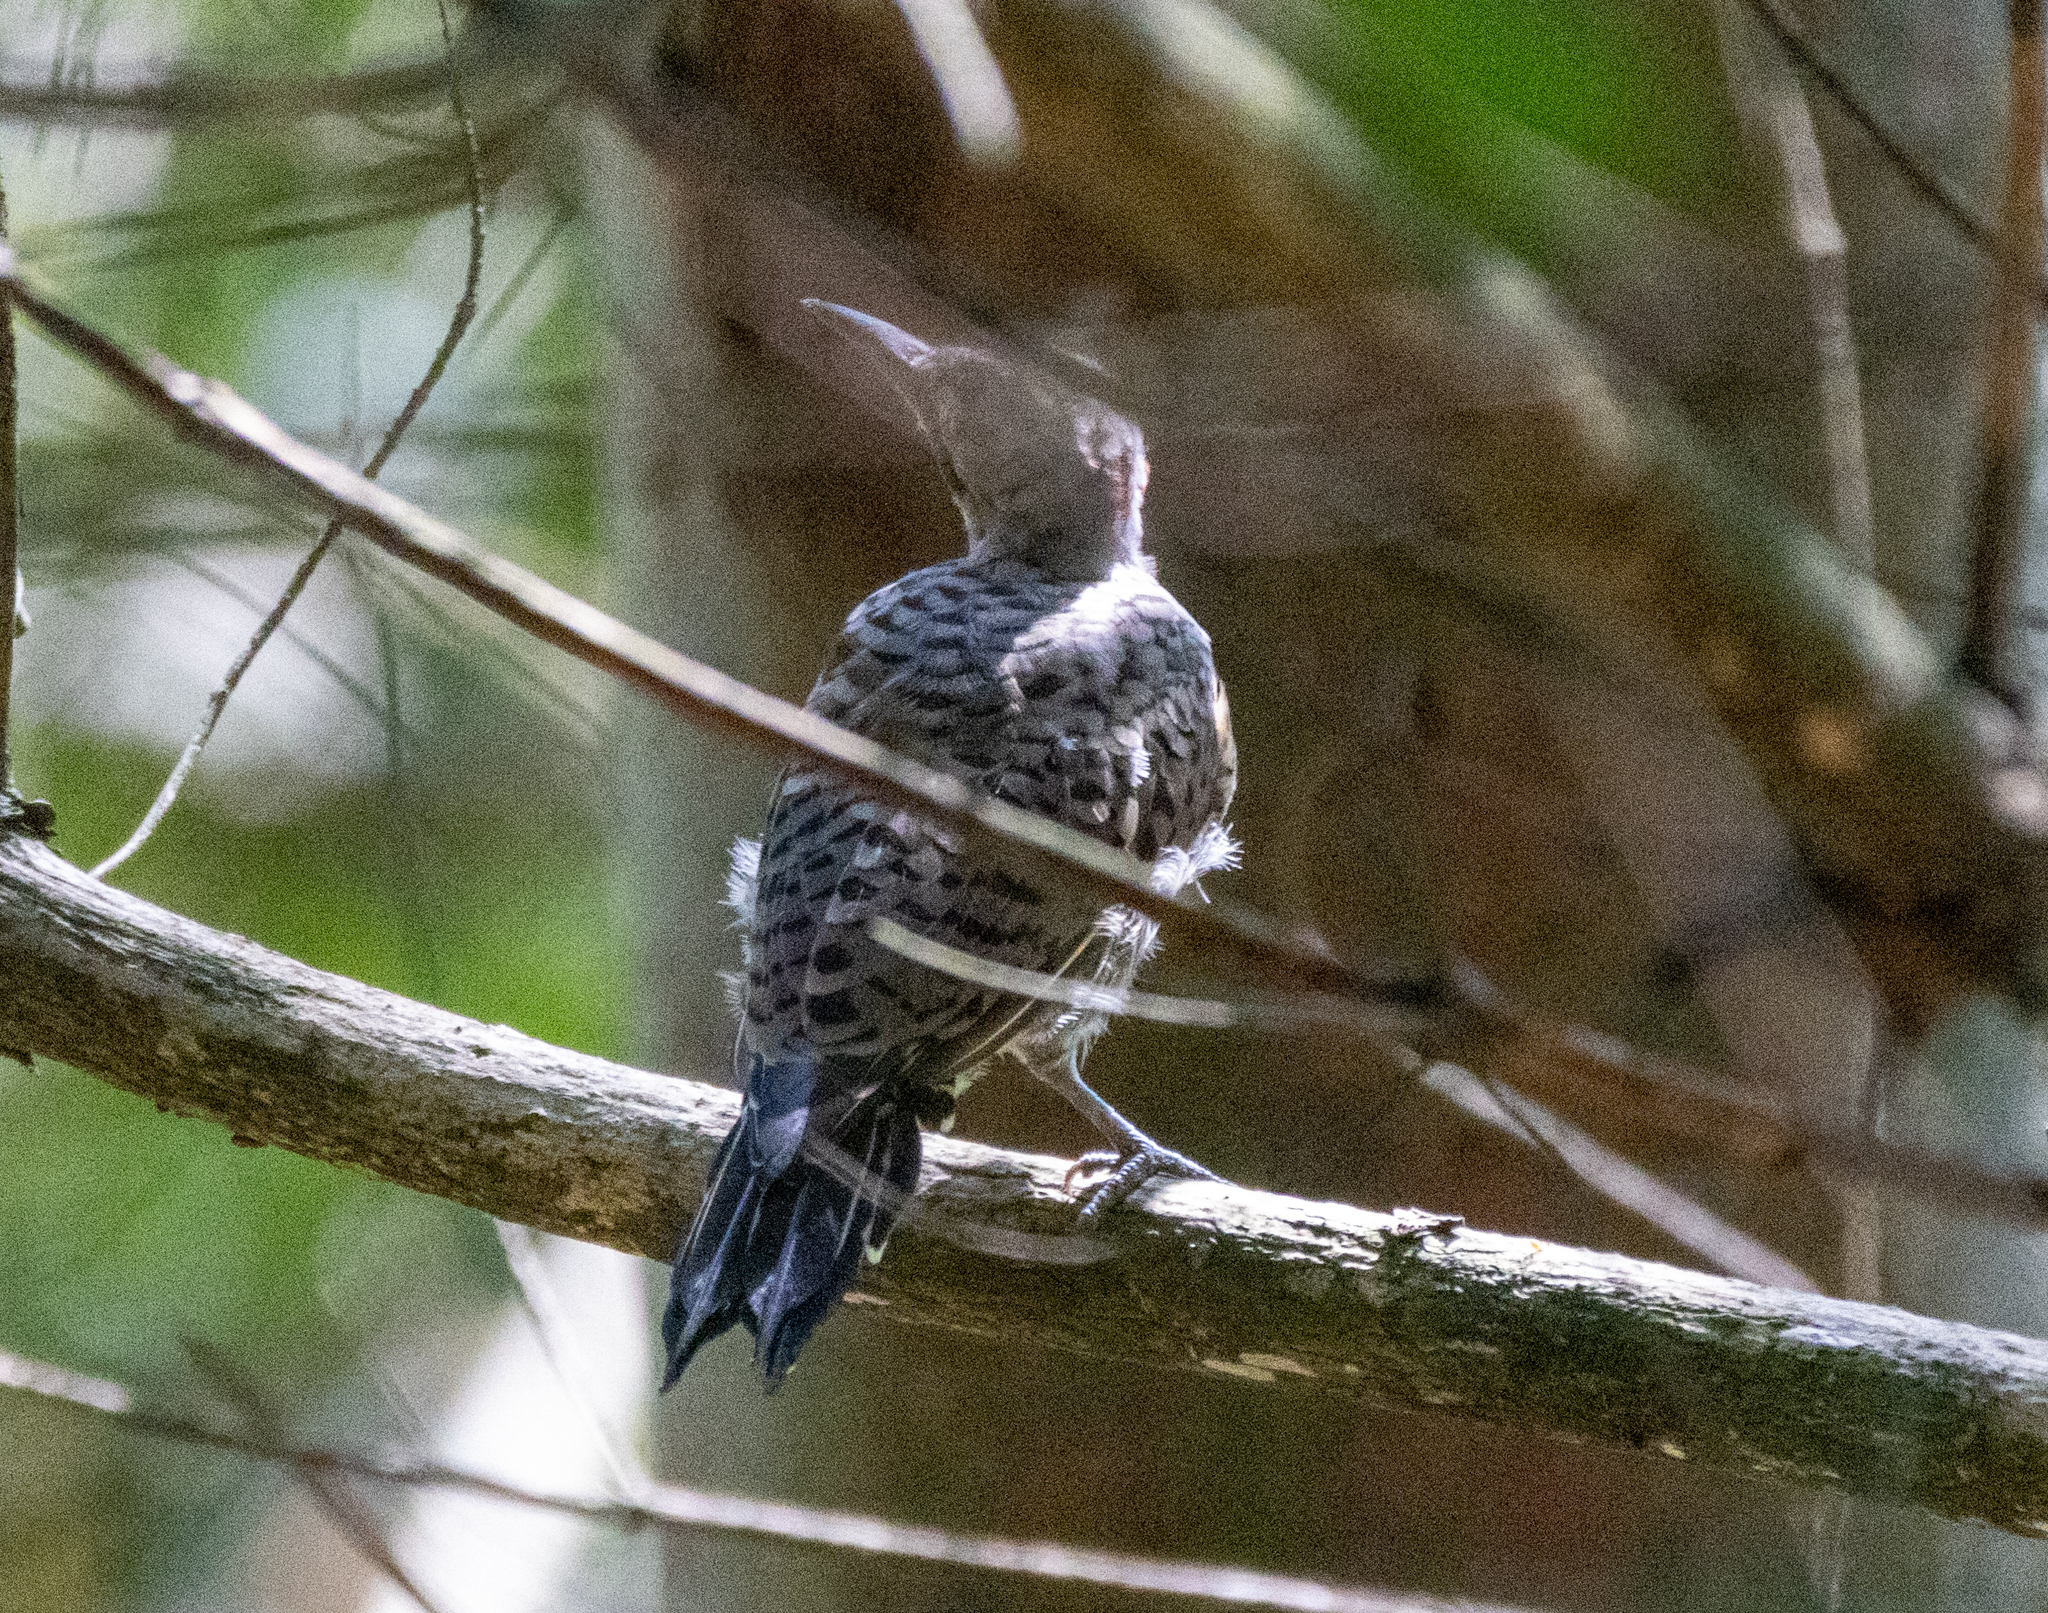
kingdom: Animalia
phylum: Chordata
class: Aves
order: Piciformes
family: Picidae
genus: Colaptes
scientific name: Colaptes auratus
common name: Northern flicker
